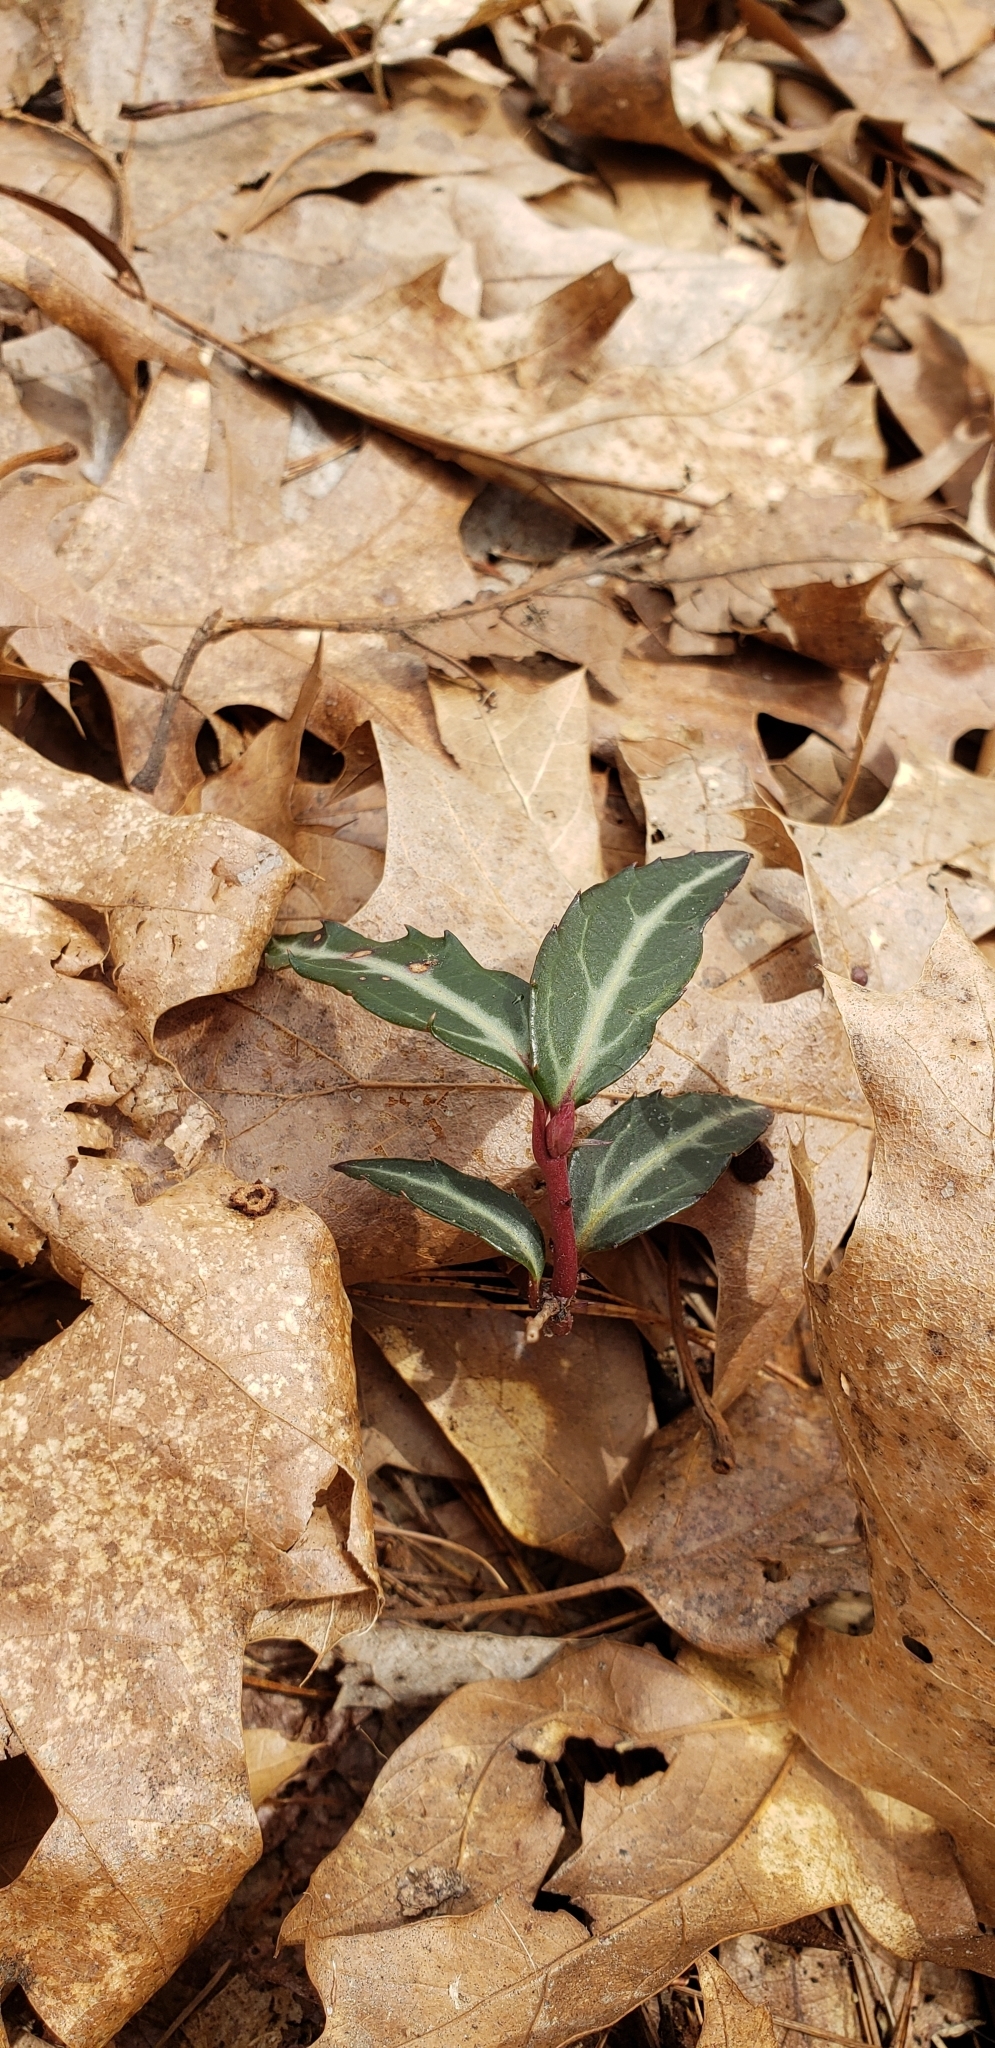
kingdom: Plantae
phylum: Tracheophyta
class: Magnoliopsida
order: Ericales
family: Ericaceae
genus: Chimaphila
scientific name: Chimaphila maculata
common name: Spotted pipsissewa
